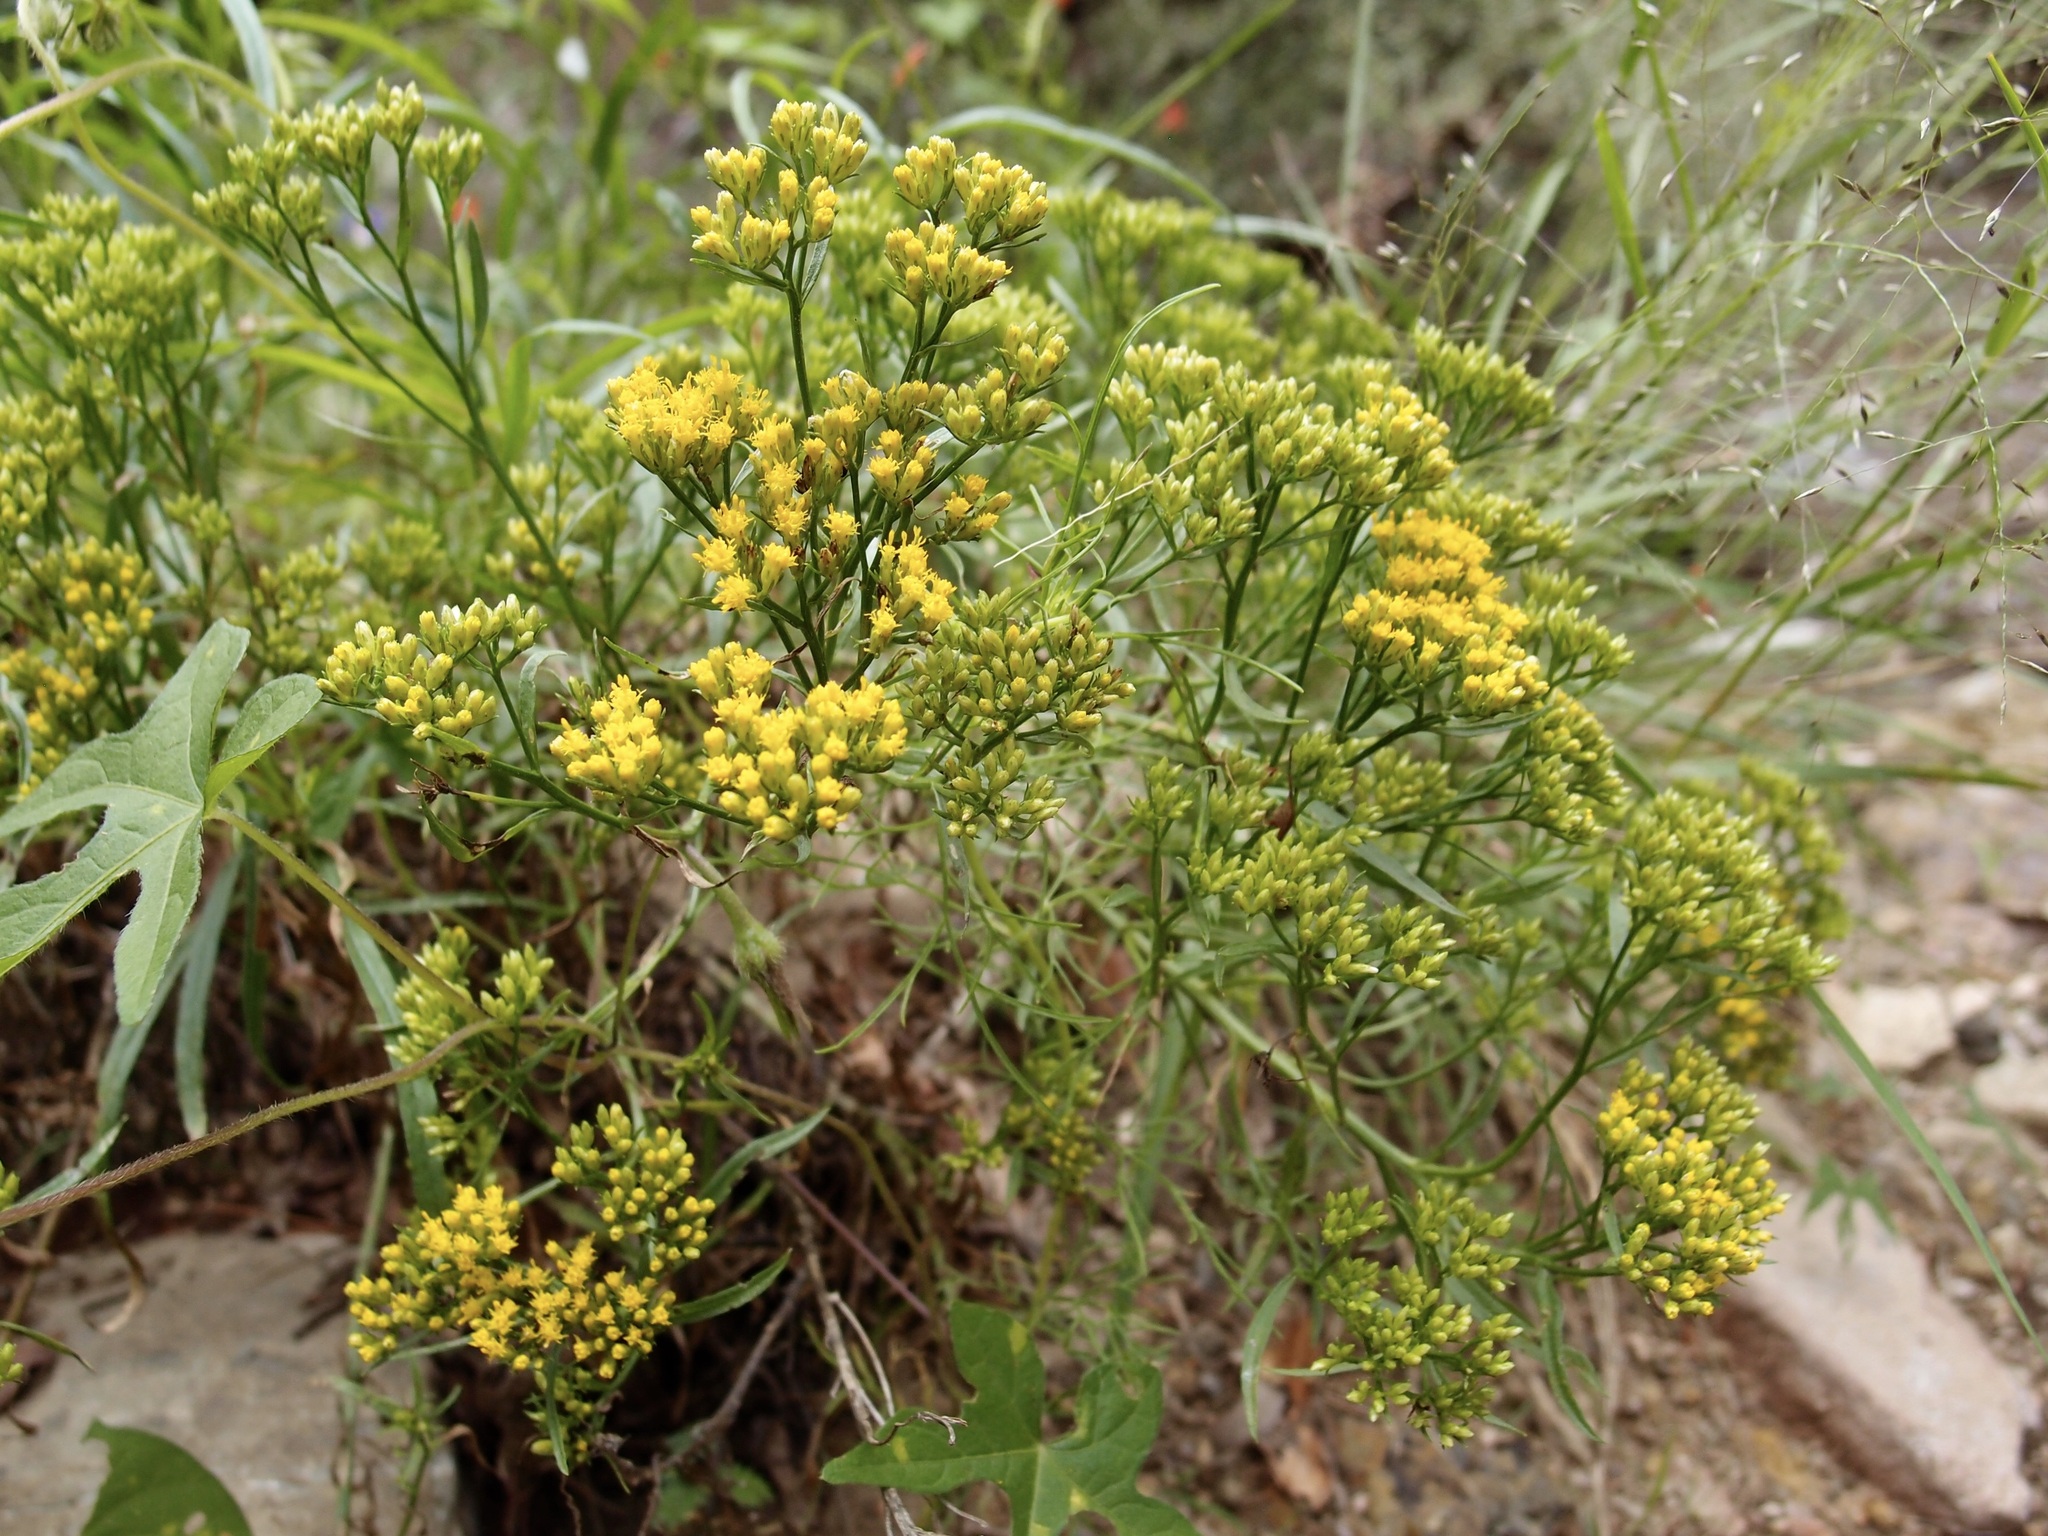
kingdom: Plantae
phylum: Tracheophyta
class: Magnoliopsida
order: Asterales
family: Asteraceae
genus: Gymnosperma
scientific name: Gymnosperma glutinosum
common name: Gumhead
